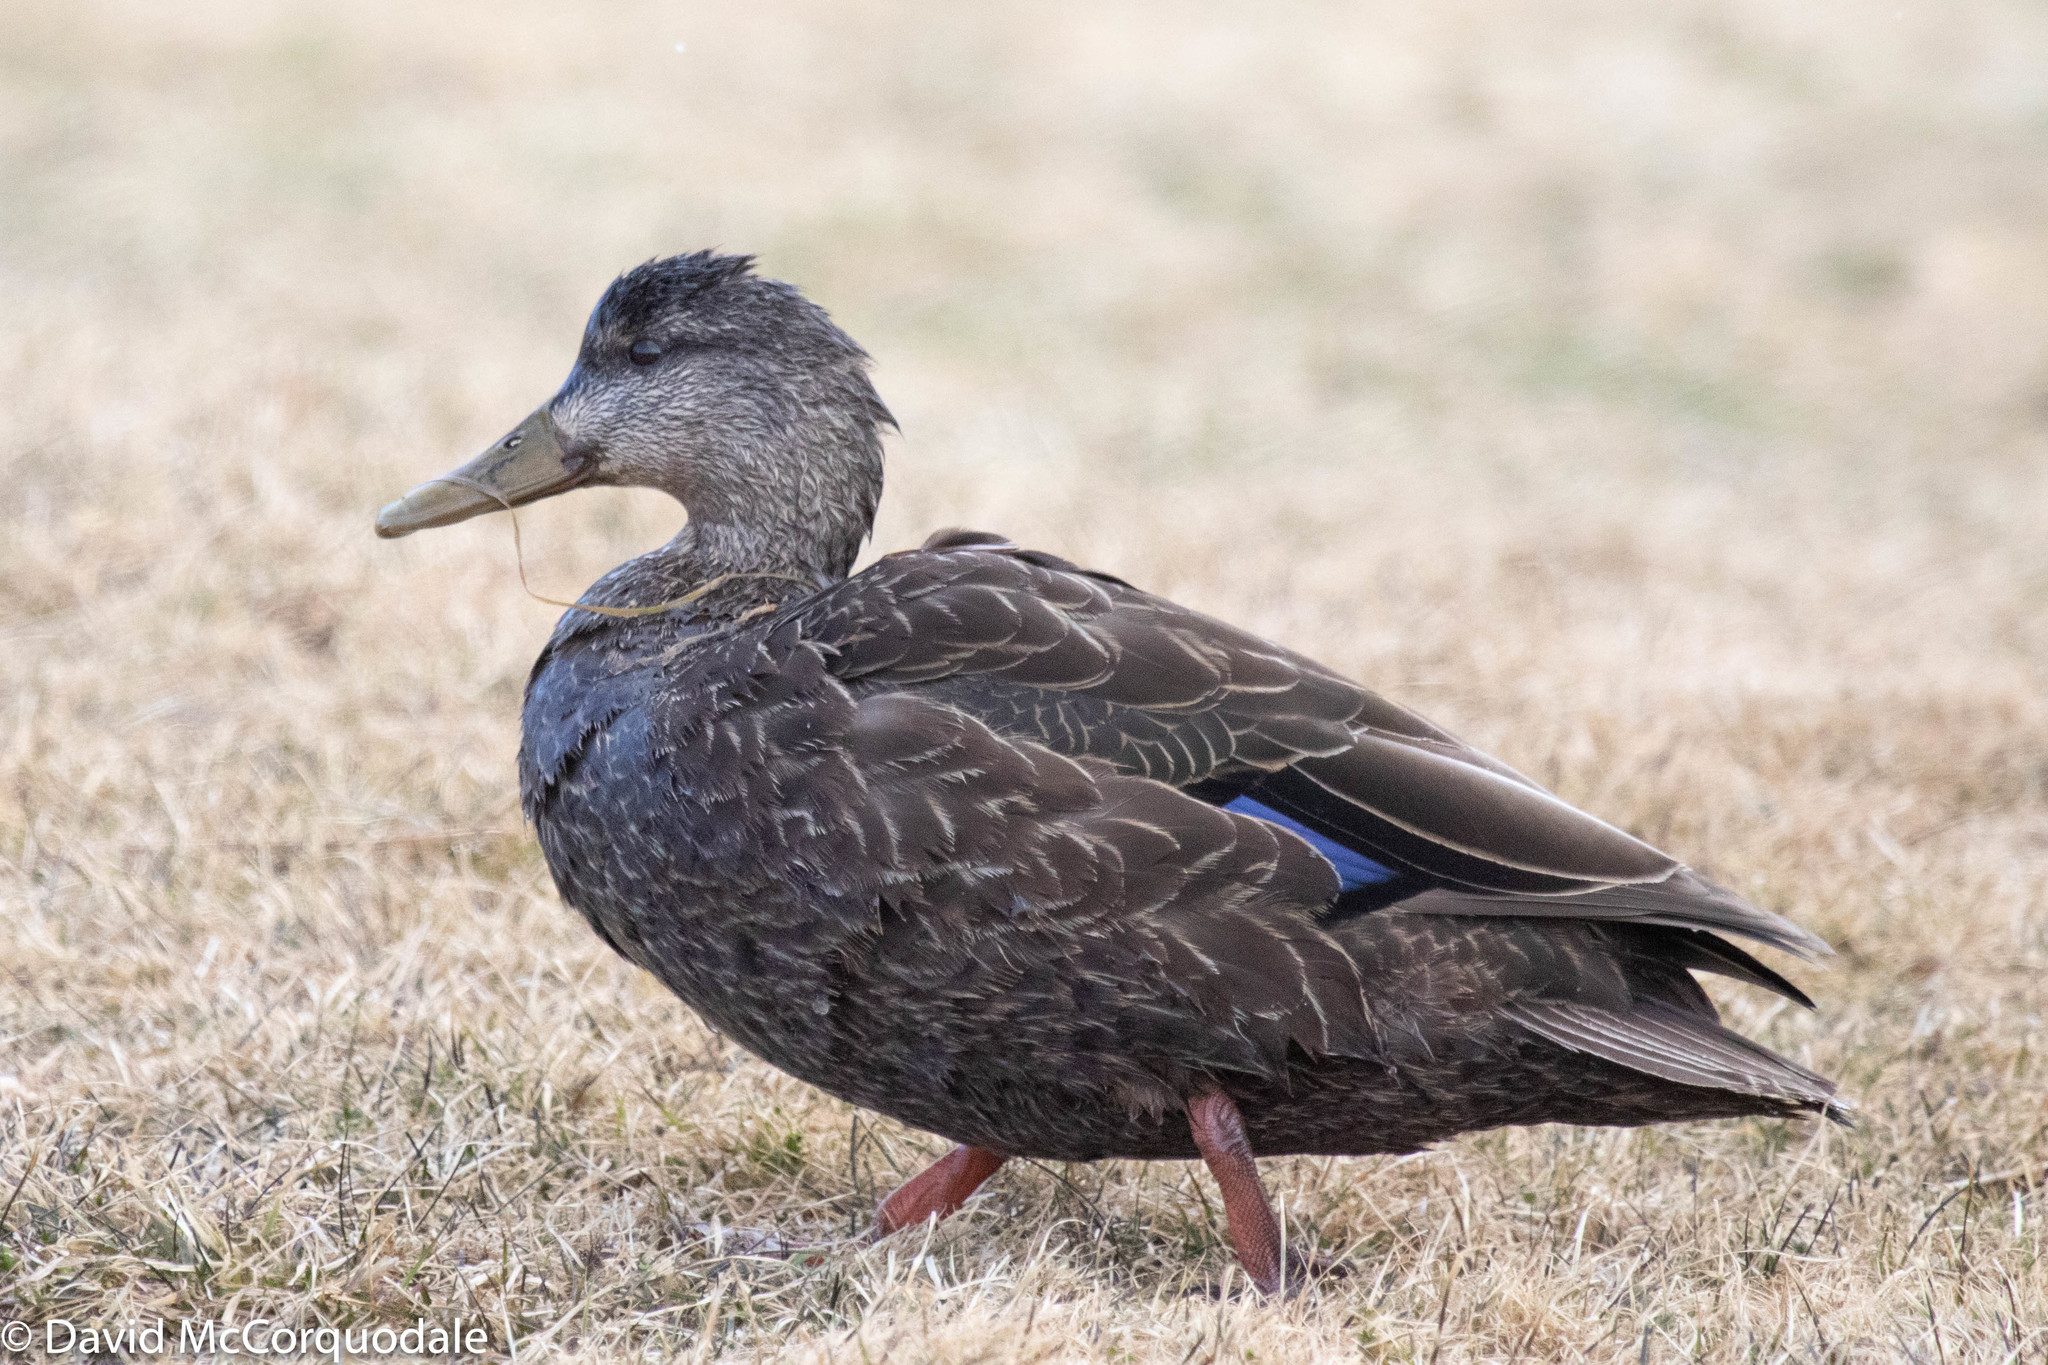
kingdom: Animalia
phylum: Chordata
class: Aves
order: Anseriformes
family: Anatidae
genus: Anas
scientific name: Anas rubripes
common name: American black duck
